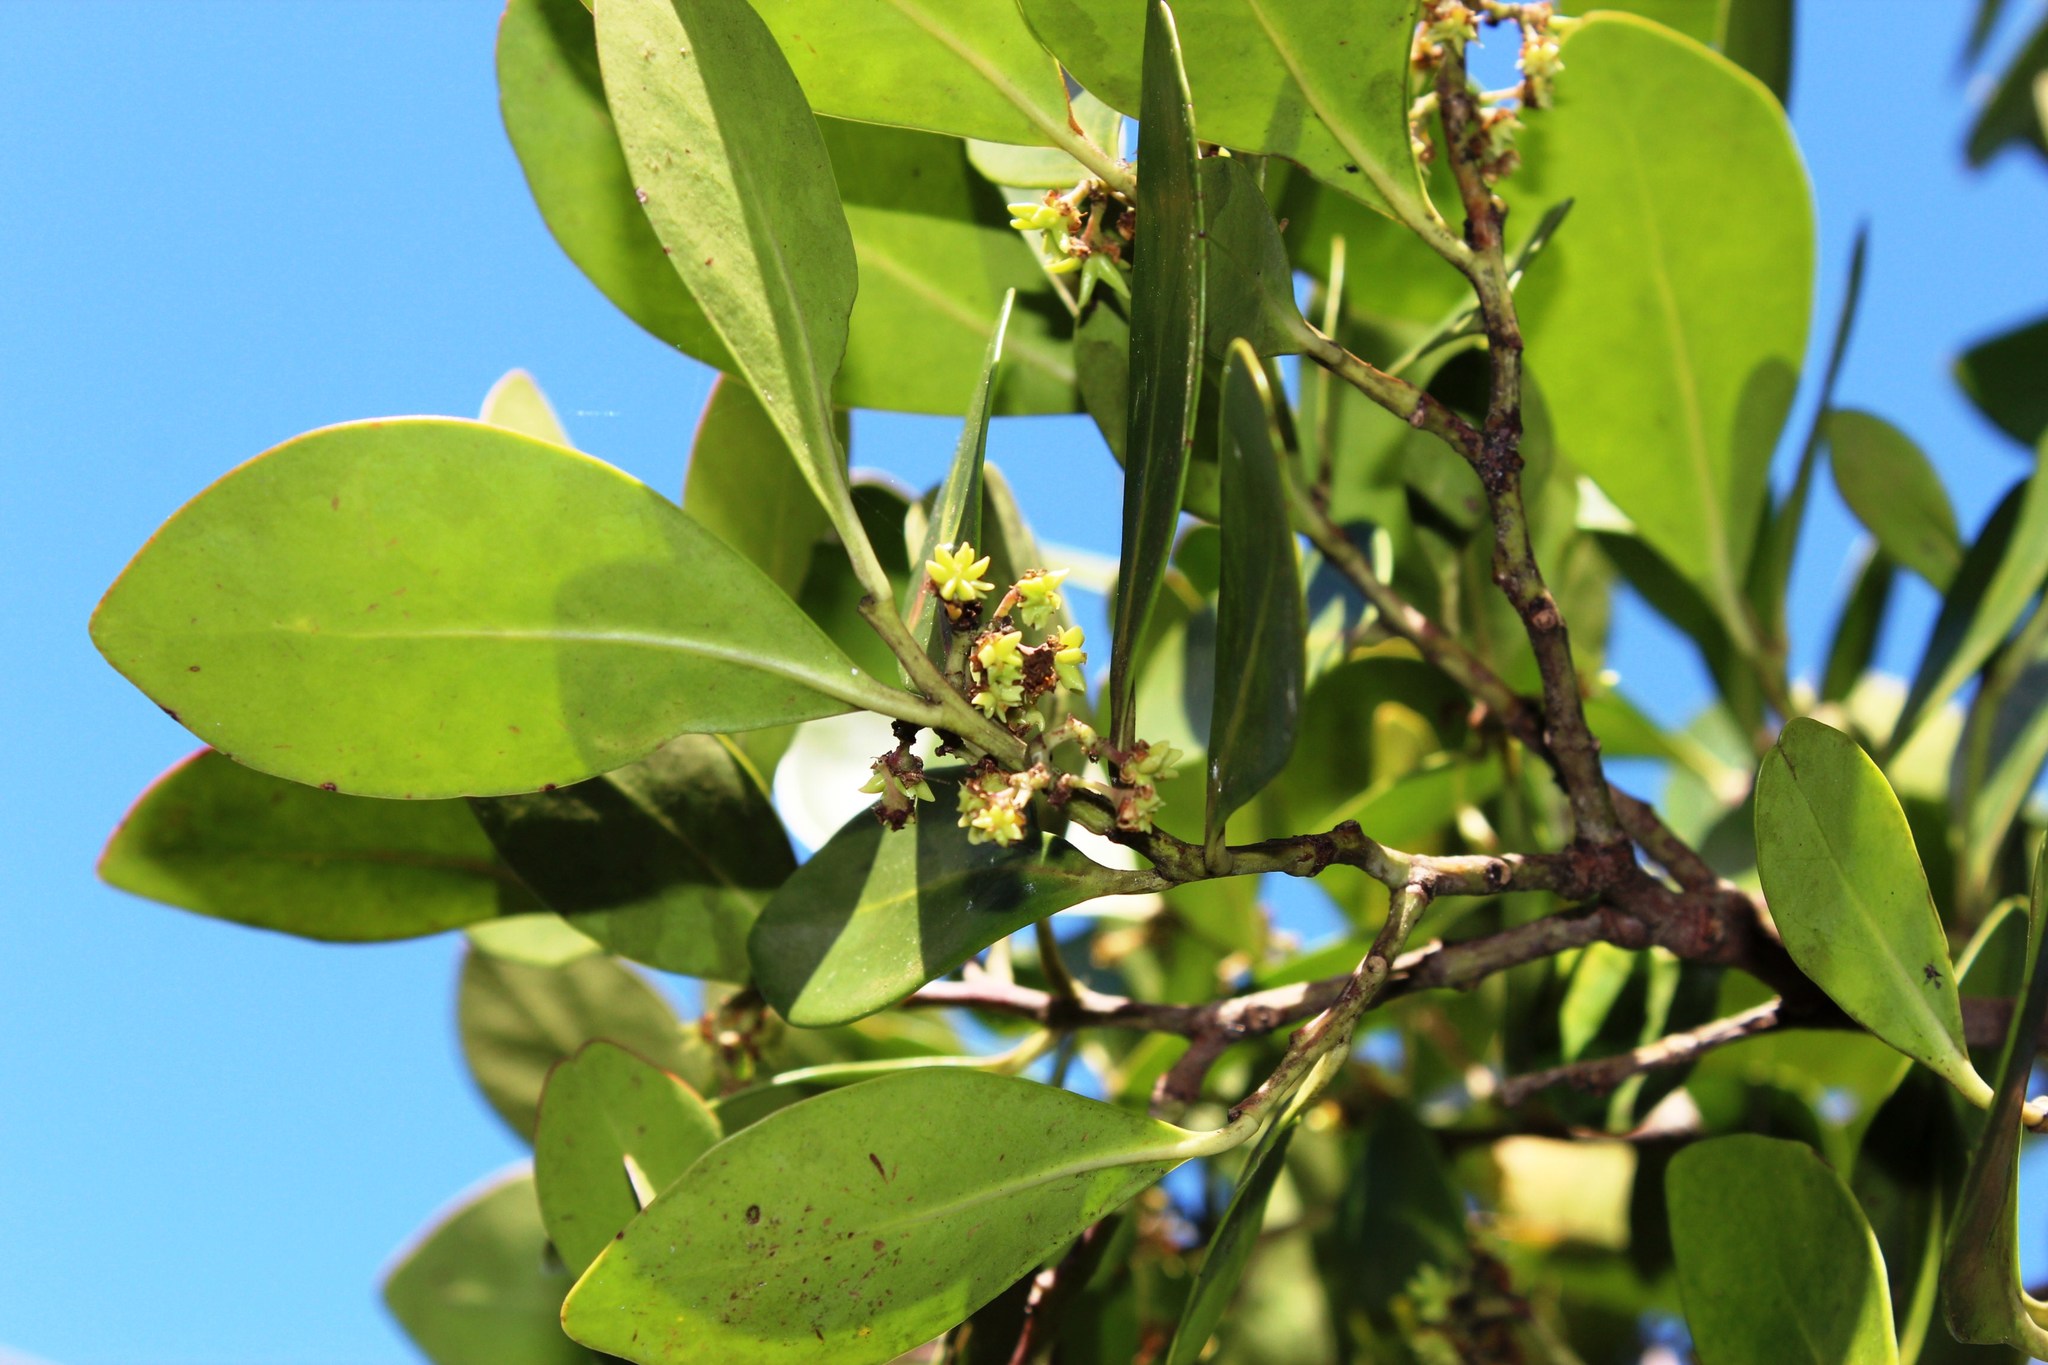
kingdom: Plantae
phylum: Tracheophyta
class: Magnoliopsida
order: Celastrales
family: Celastraceae
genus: Pterocelastrus
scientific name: Pterocelastrus tricuspidatus
